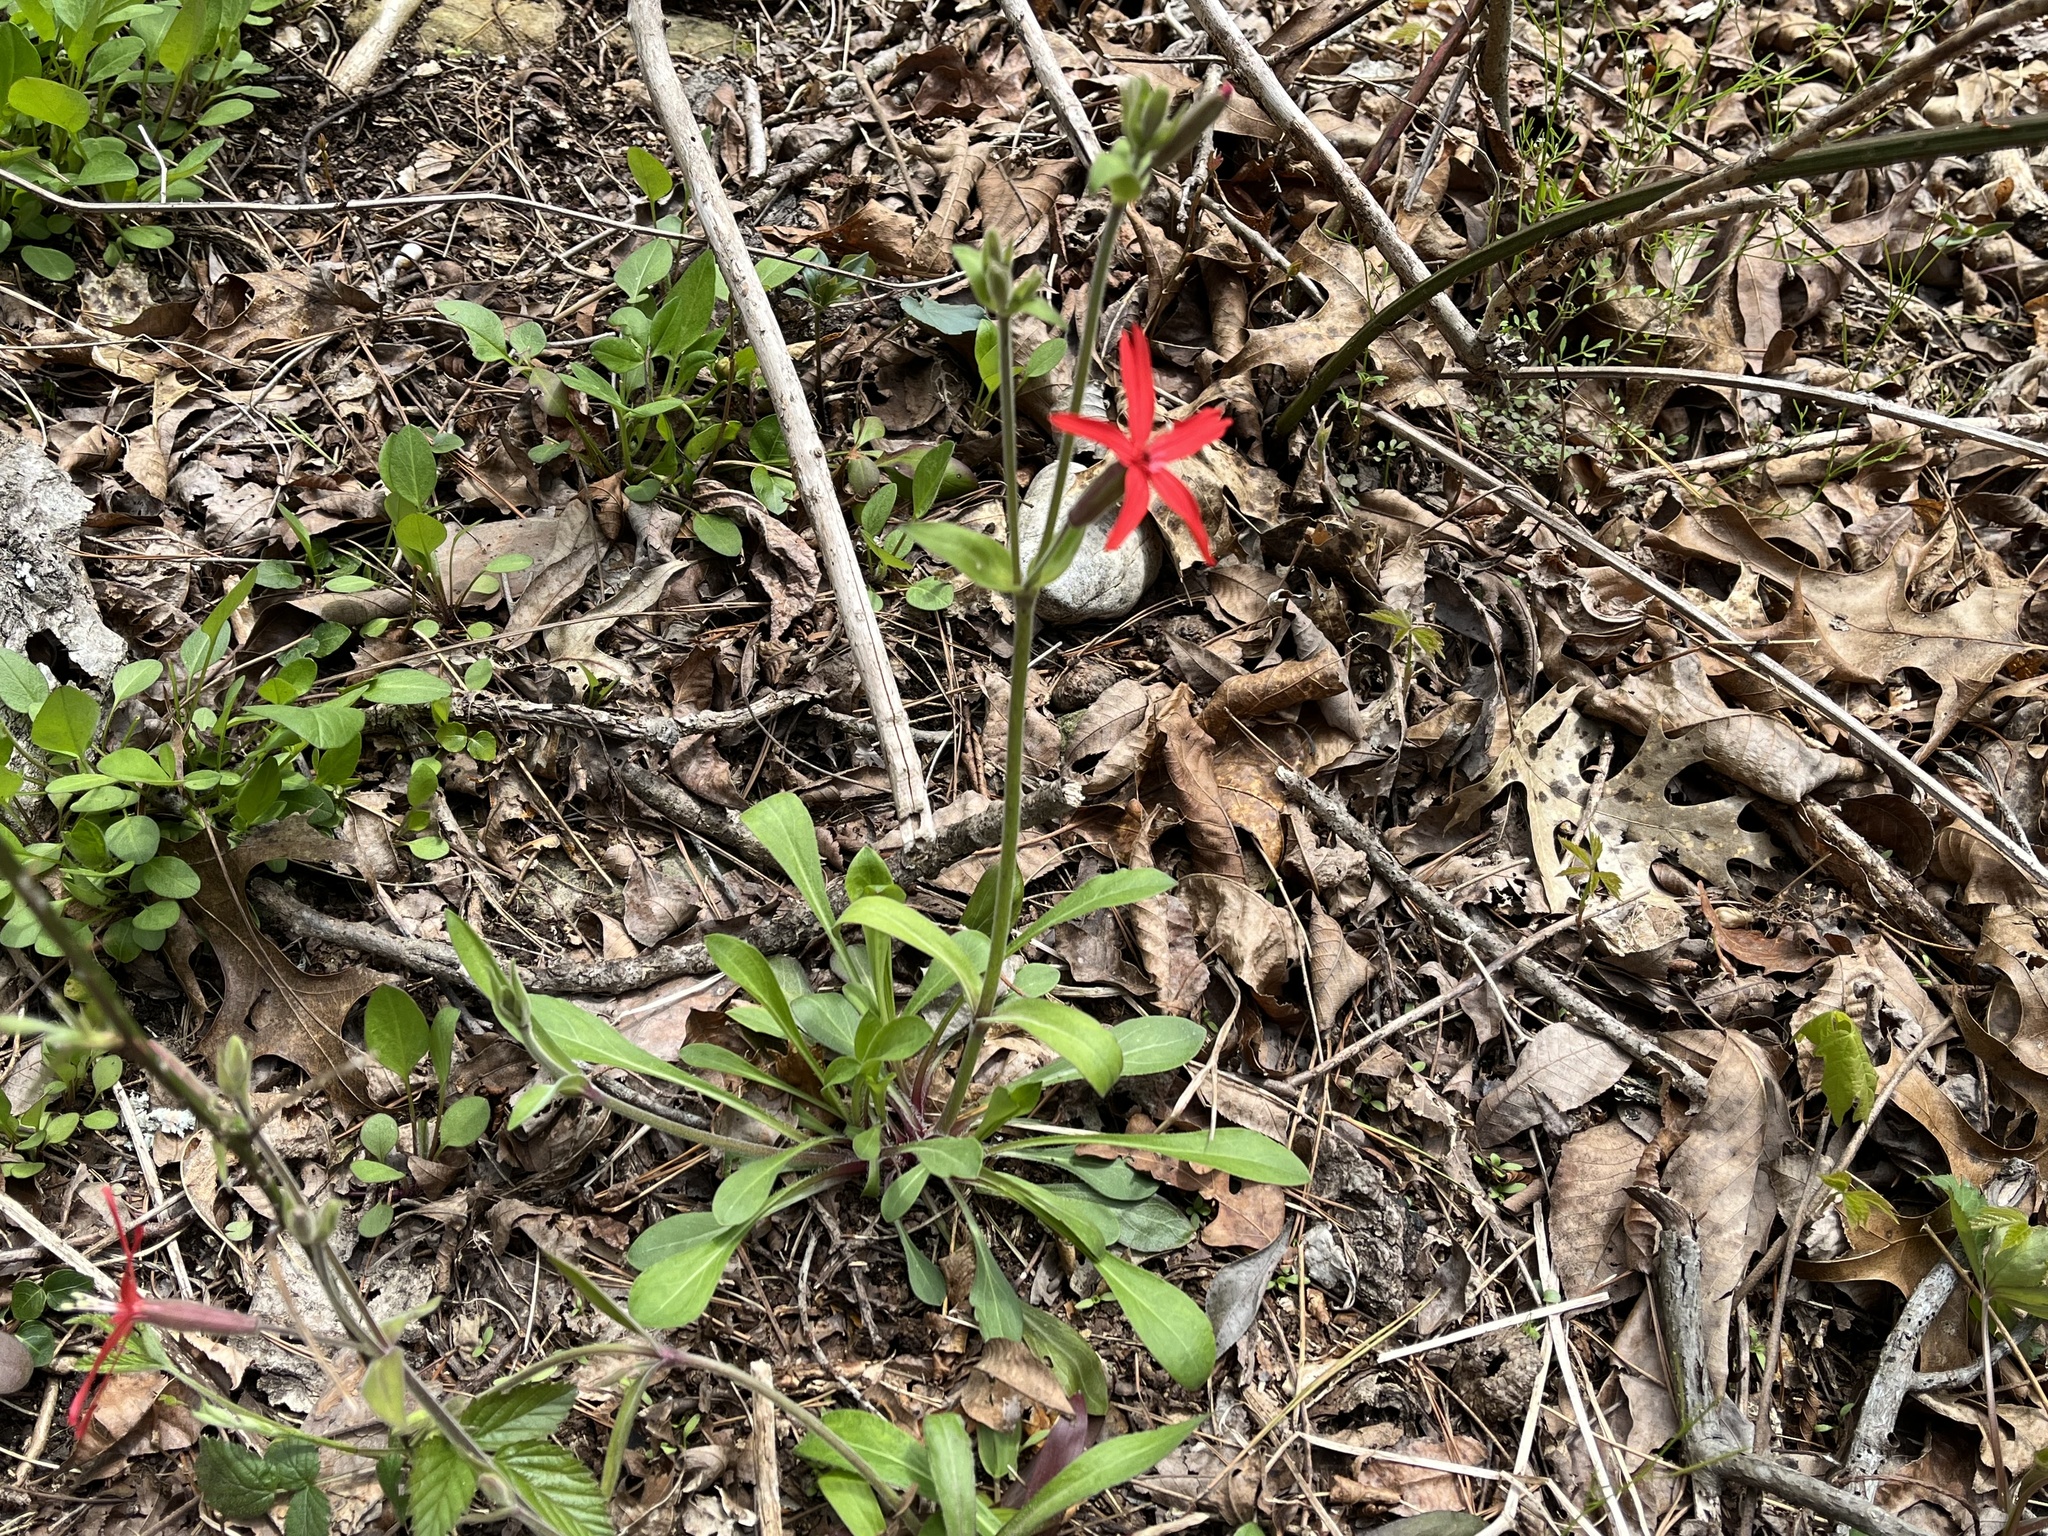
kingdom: Plantae
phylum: Tracheophyta
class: Magnoliopsida
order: Caryophyllales
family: Caryophyllaceae
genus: Silene
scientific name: Silene virginica
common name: Fire-pink
